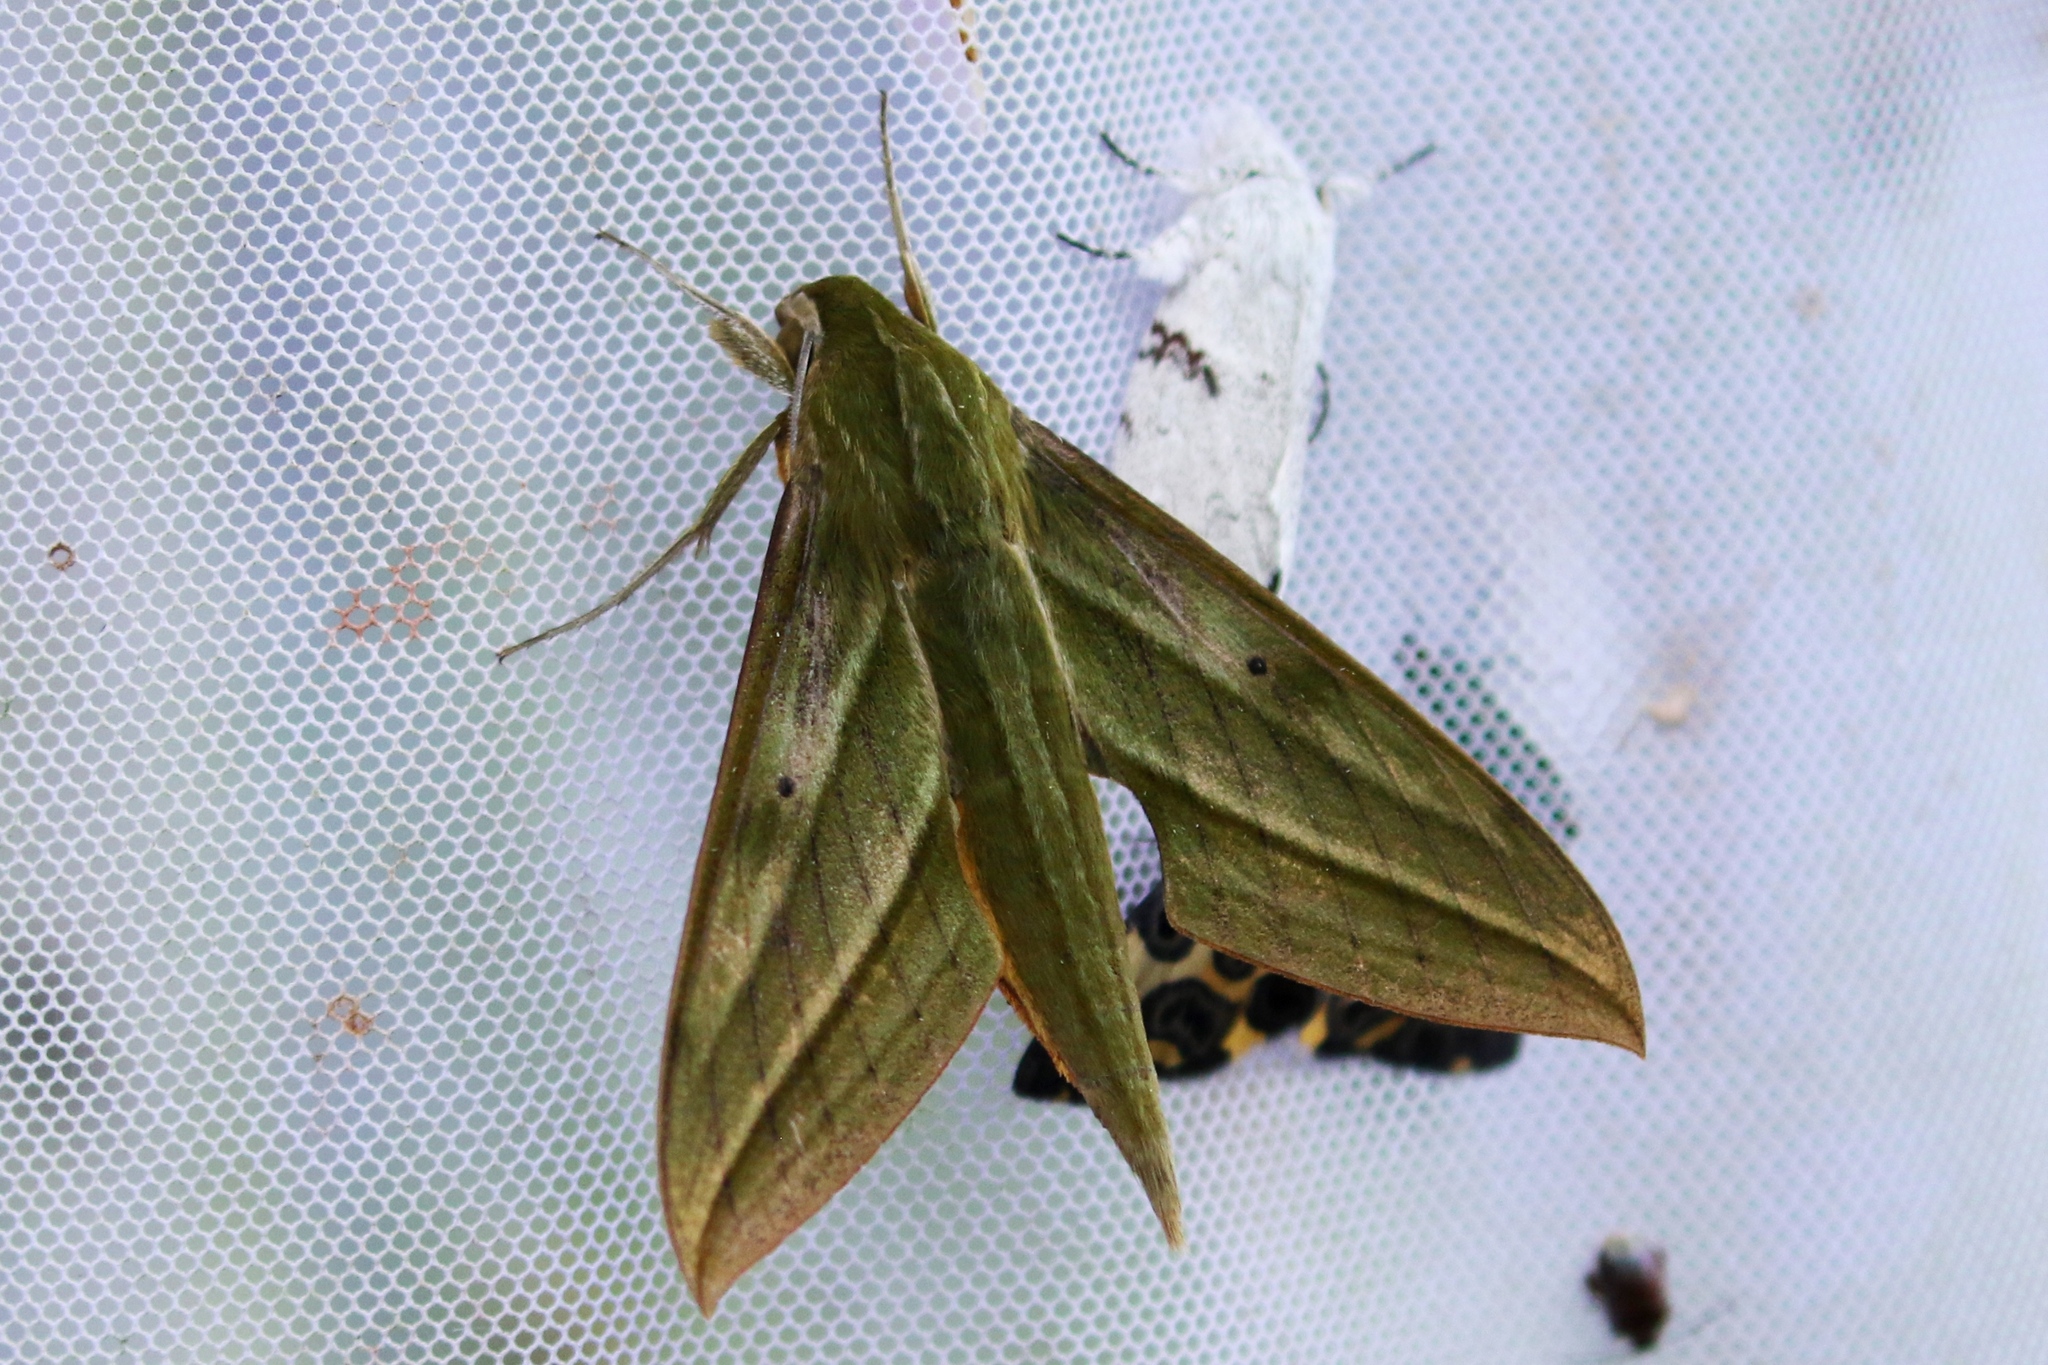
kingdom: Animalia
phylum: Arthropoda
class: Insecta
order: Lepidoptera
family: Sphingidae
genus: Xylophanes
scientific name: Xylophanes rhodochlora
